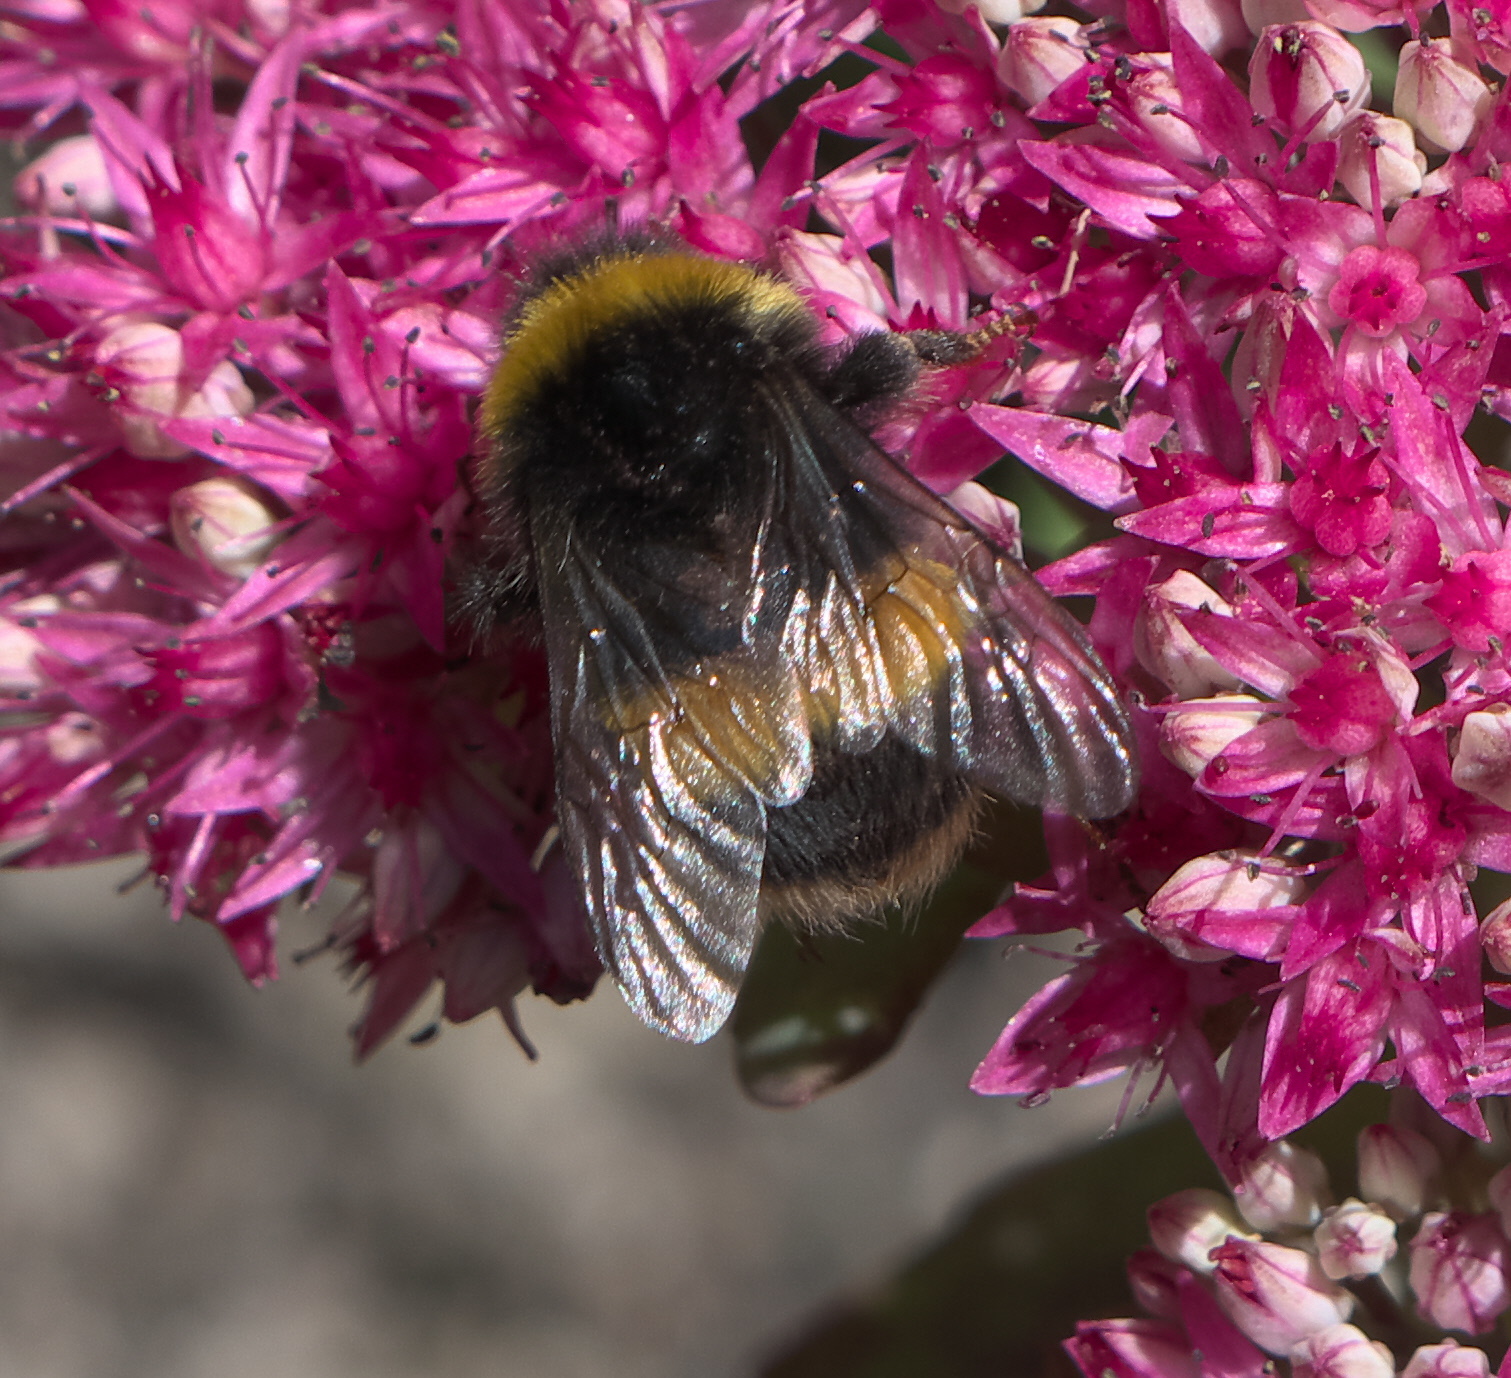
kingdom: Animalia
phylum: Arthropoda
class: Insecta
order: Hymenoptera
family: Apidae
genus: Bombus
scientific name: Bombus terrestris
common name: Buff-tailed bumblebee
